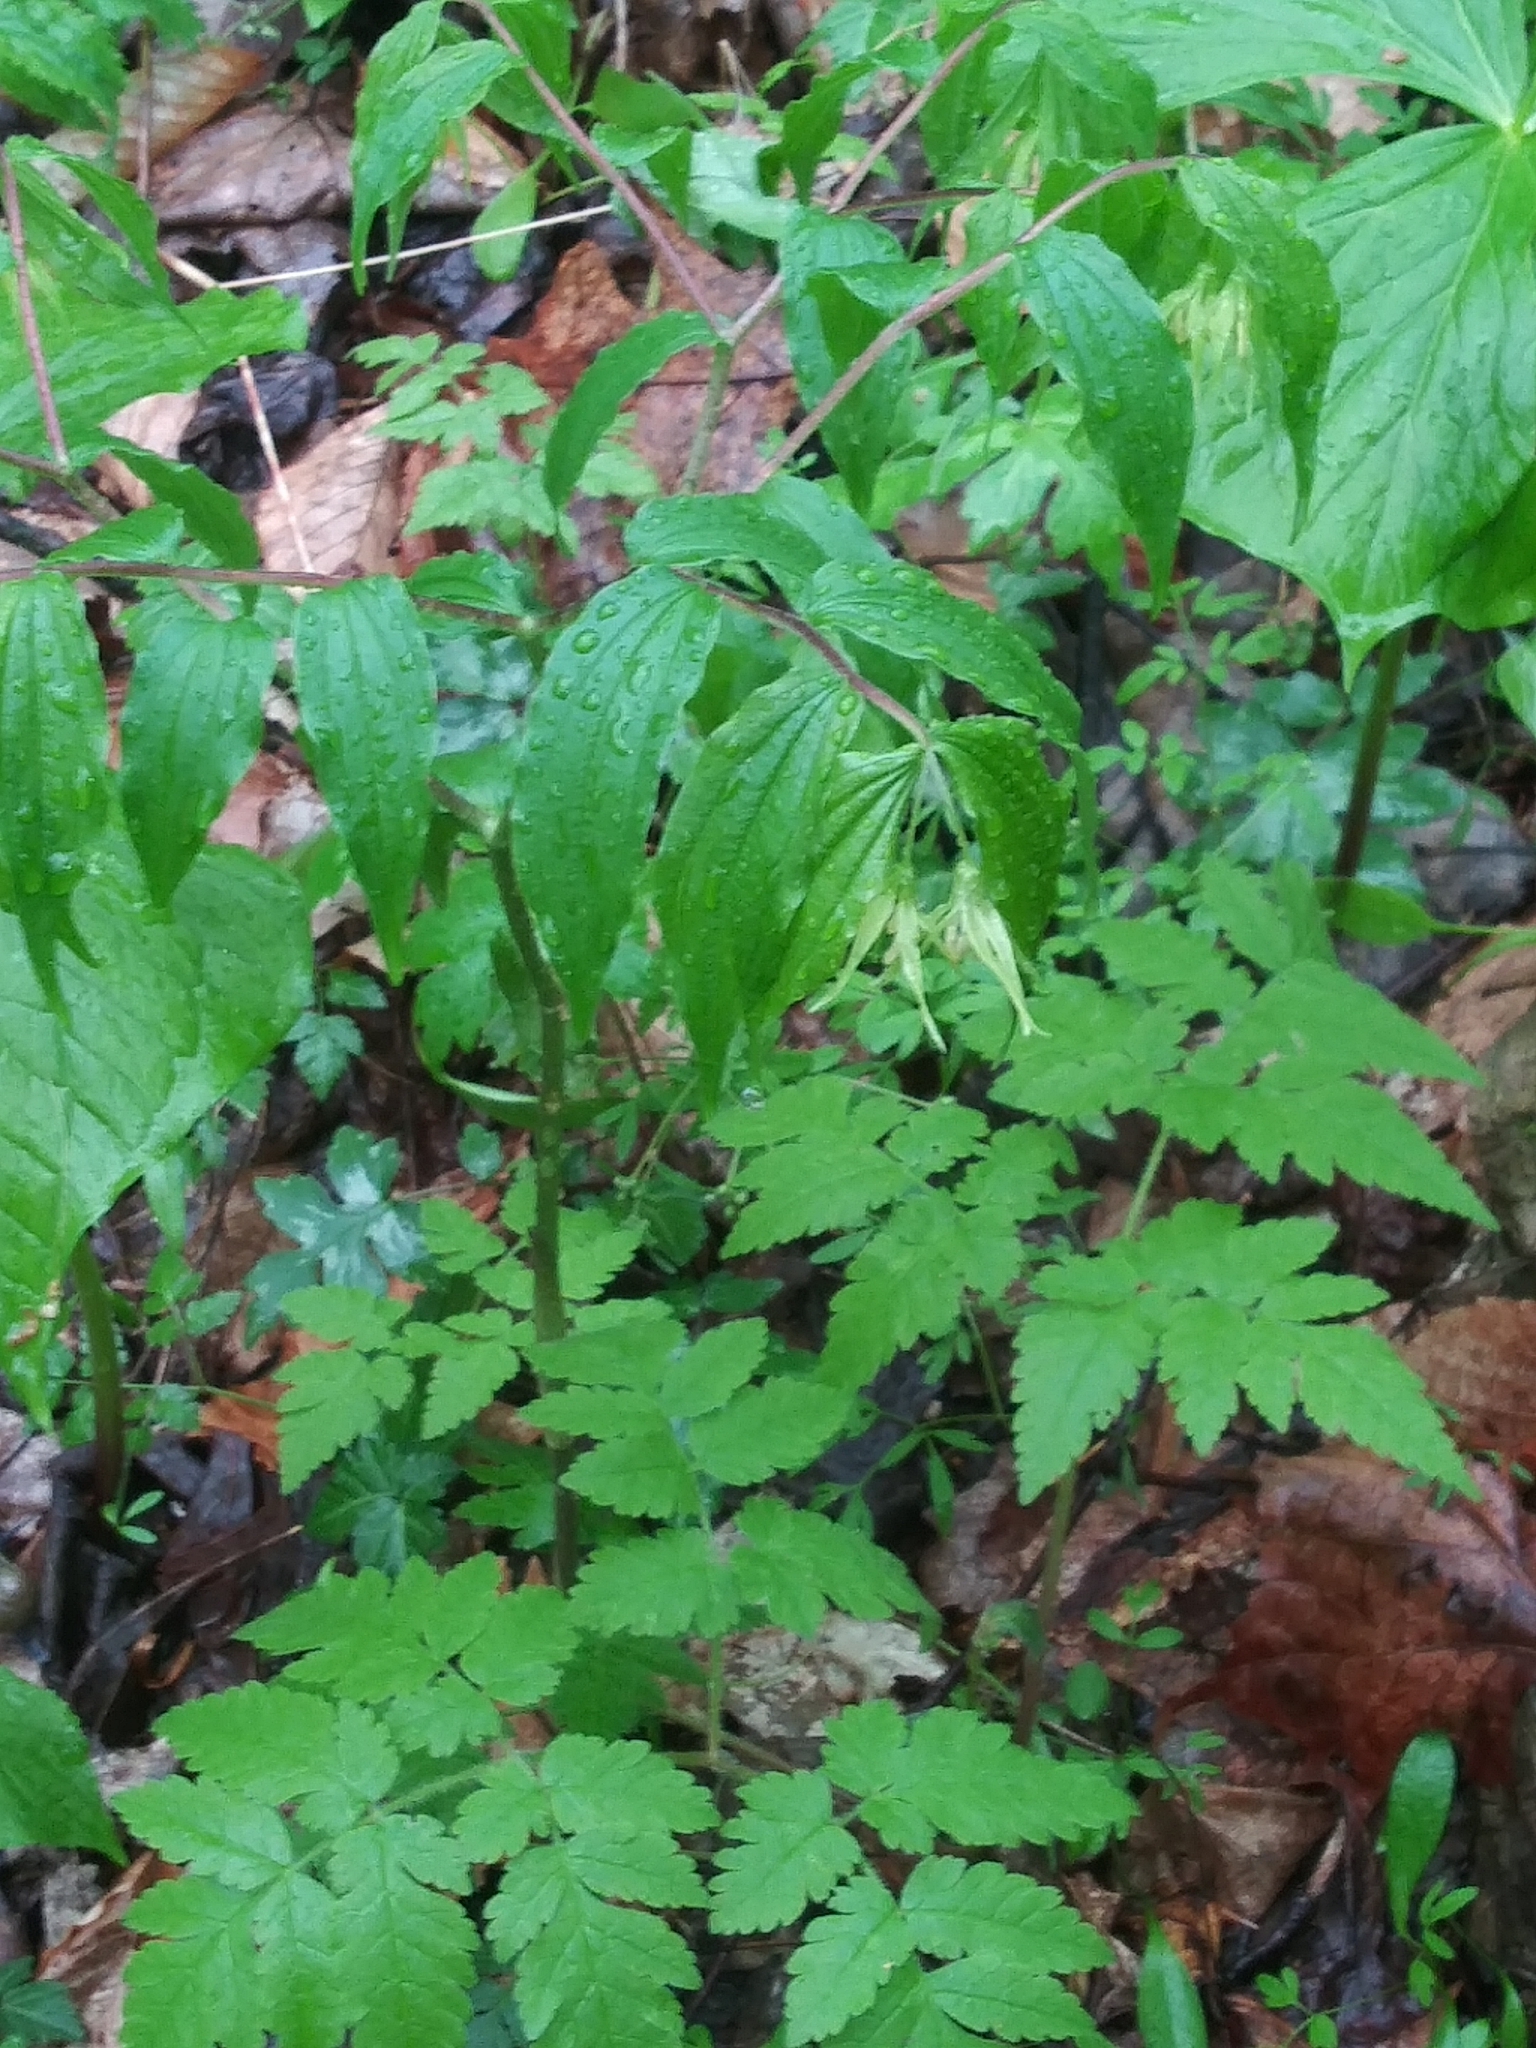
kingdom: Plantae
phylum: Tracheophyta
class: Liliopsida
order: Liliales
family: Liliaceae
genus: Prosartes
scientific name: Prosartes lanuginosa
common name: Hairy mandarin
